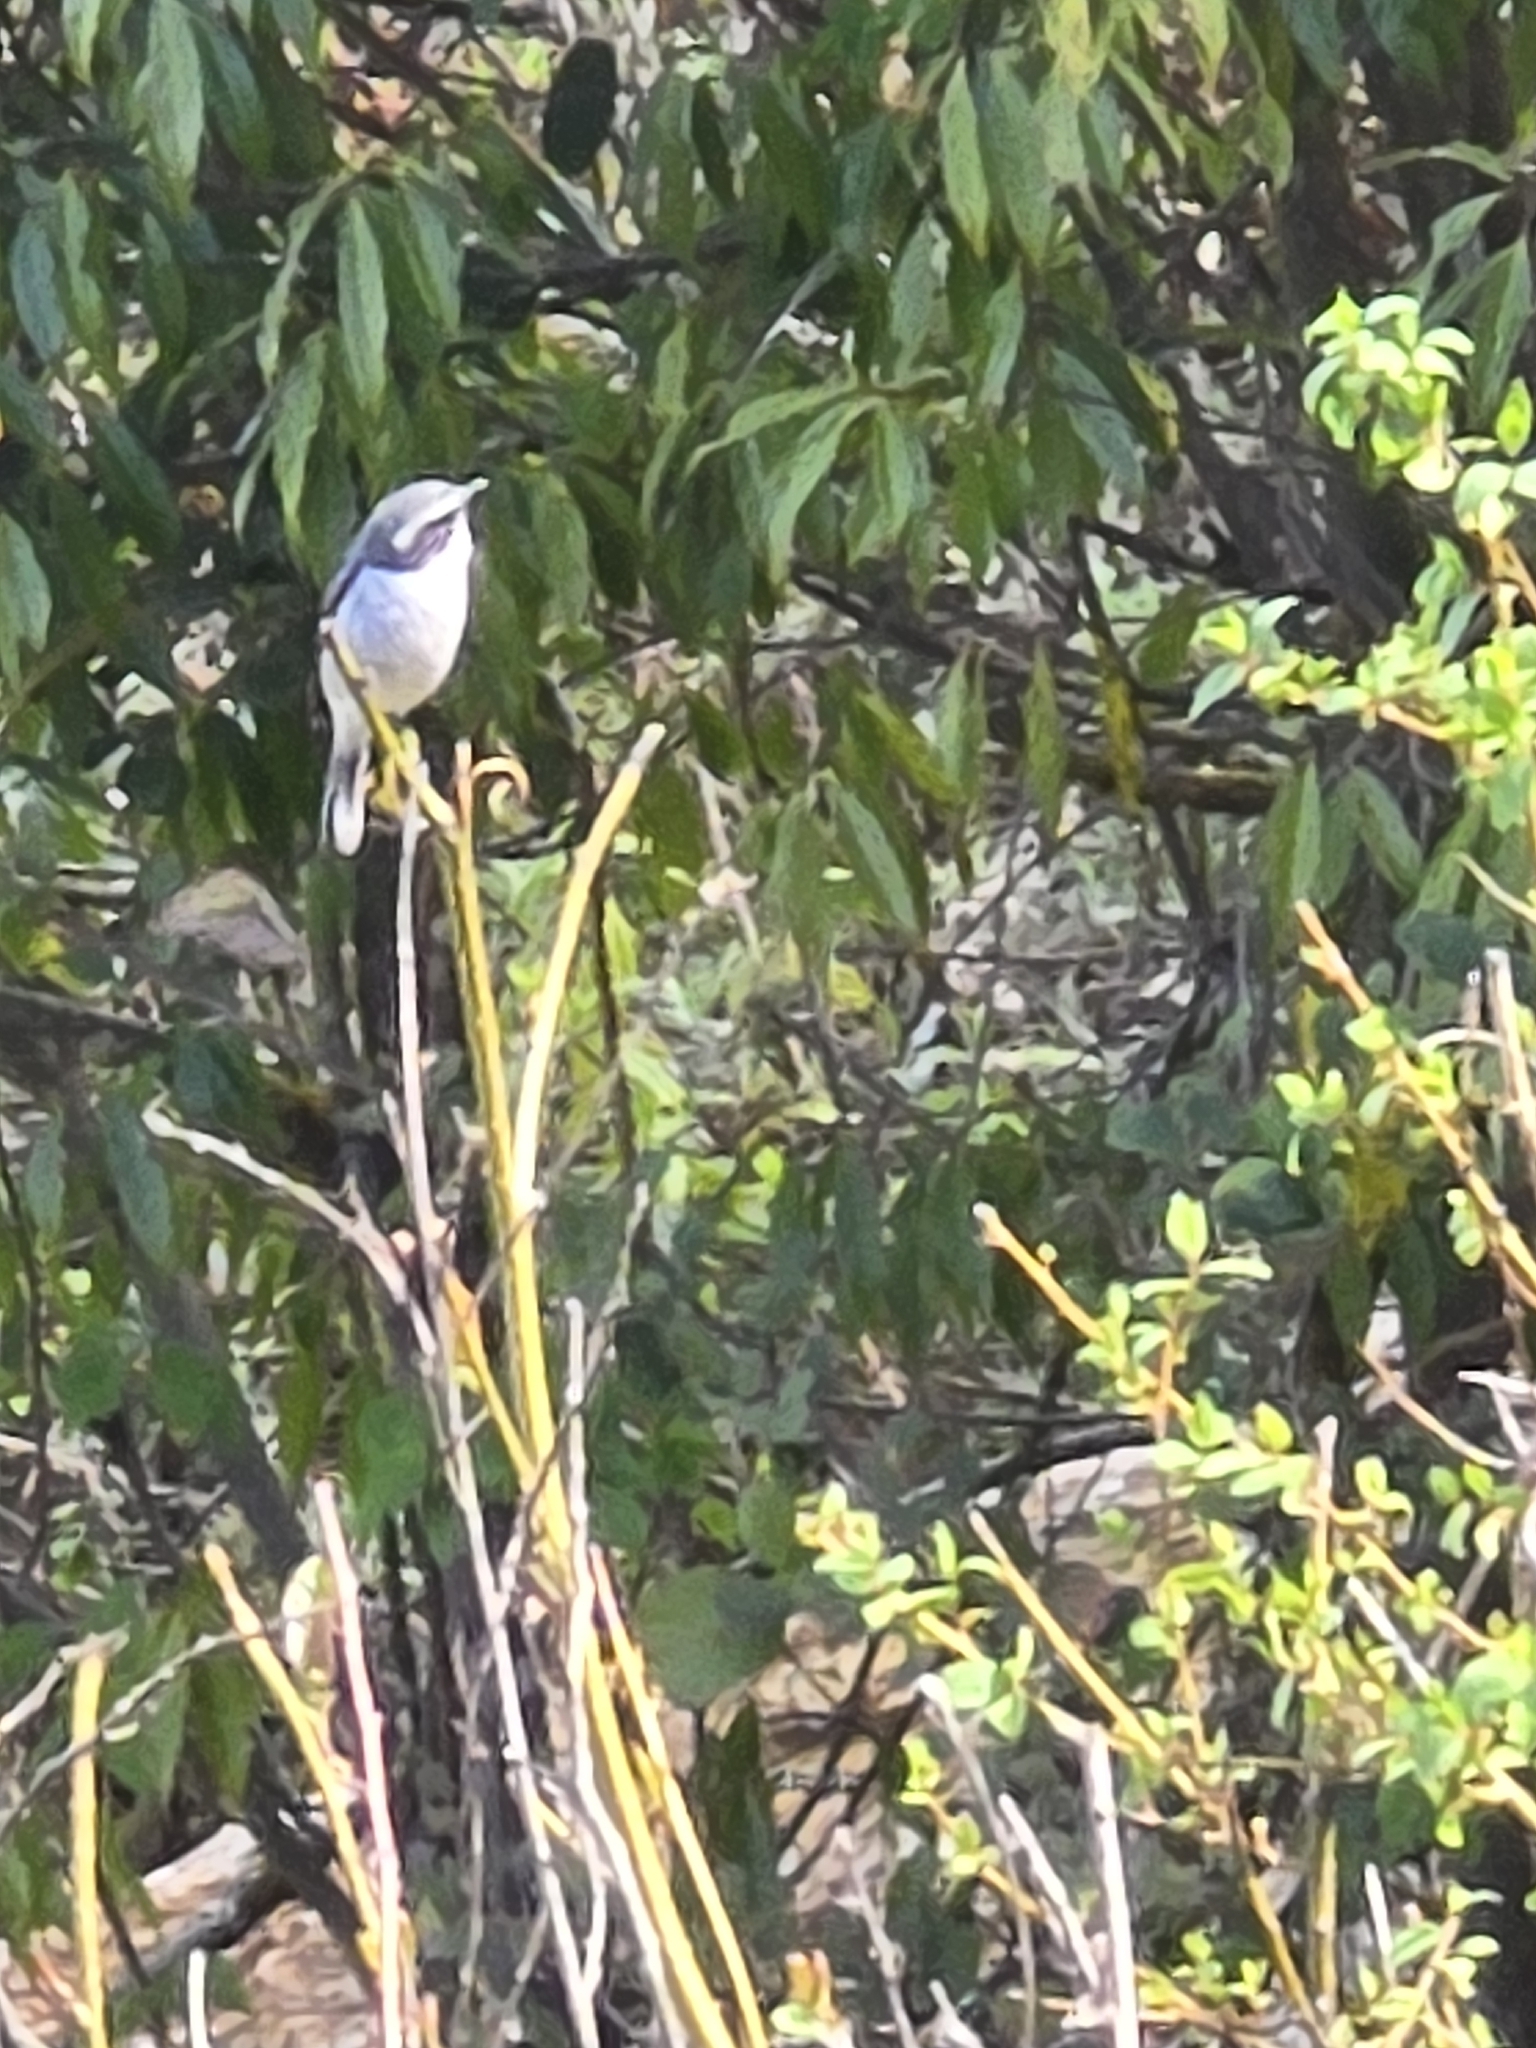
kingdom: Animalia
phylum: Chordata
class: Aves
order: Passeriformes
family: Muscicapidae
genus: Saxicola
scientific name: Saxicola ferreus
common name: Grey bush chat
